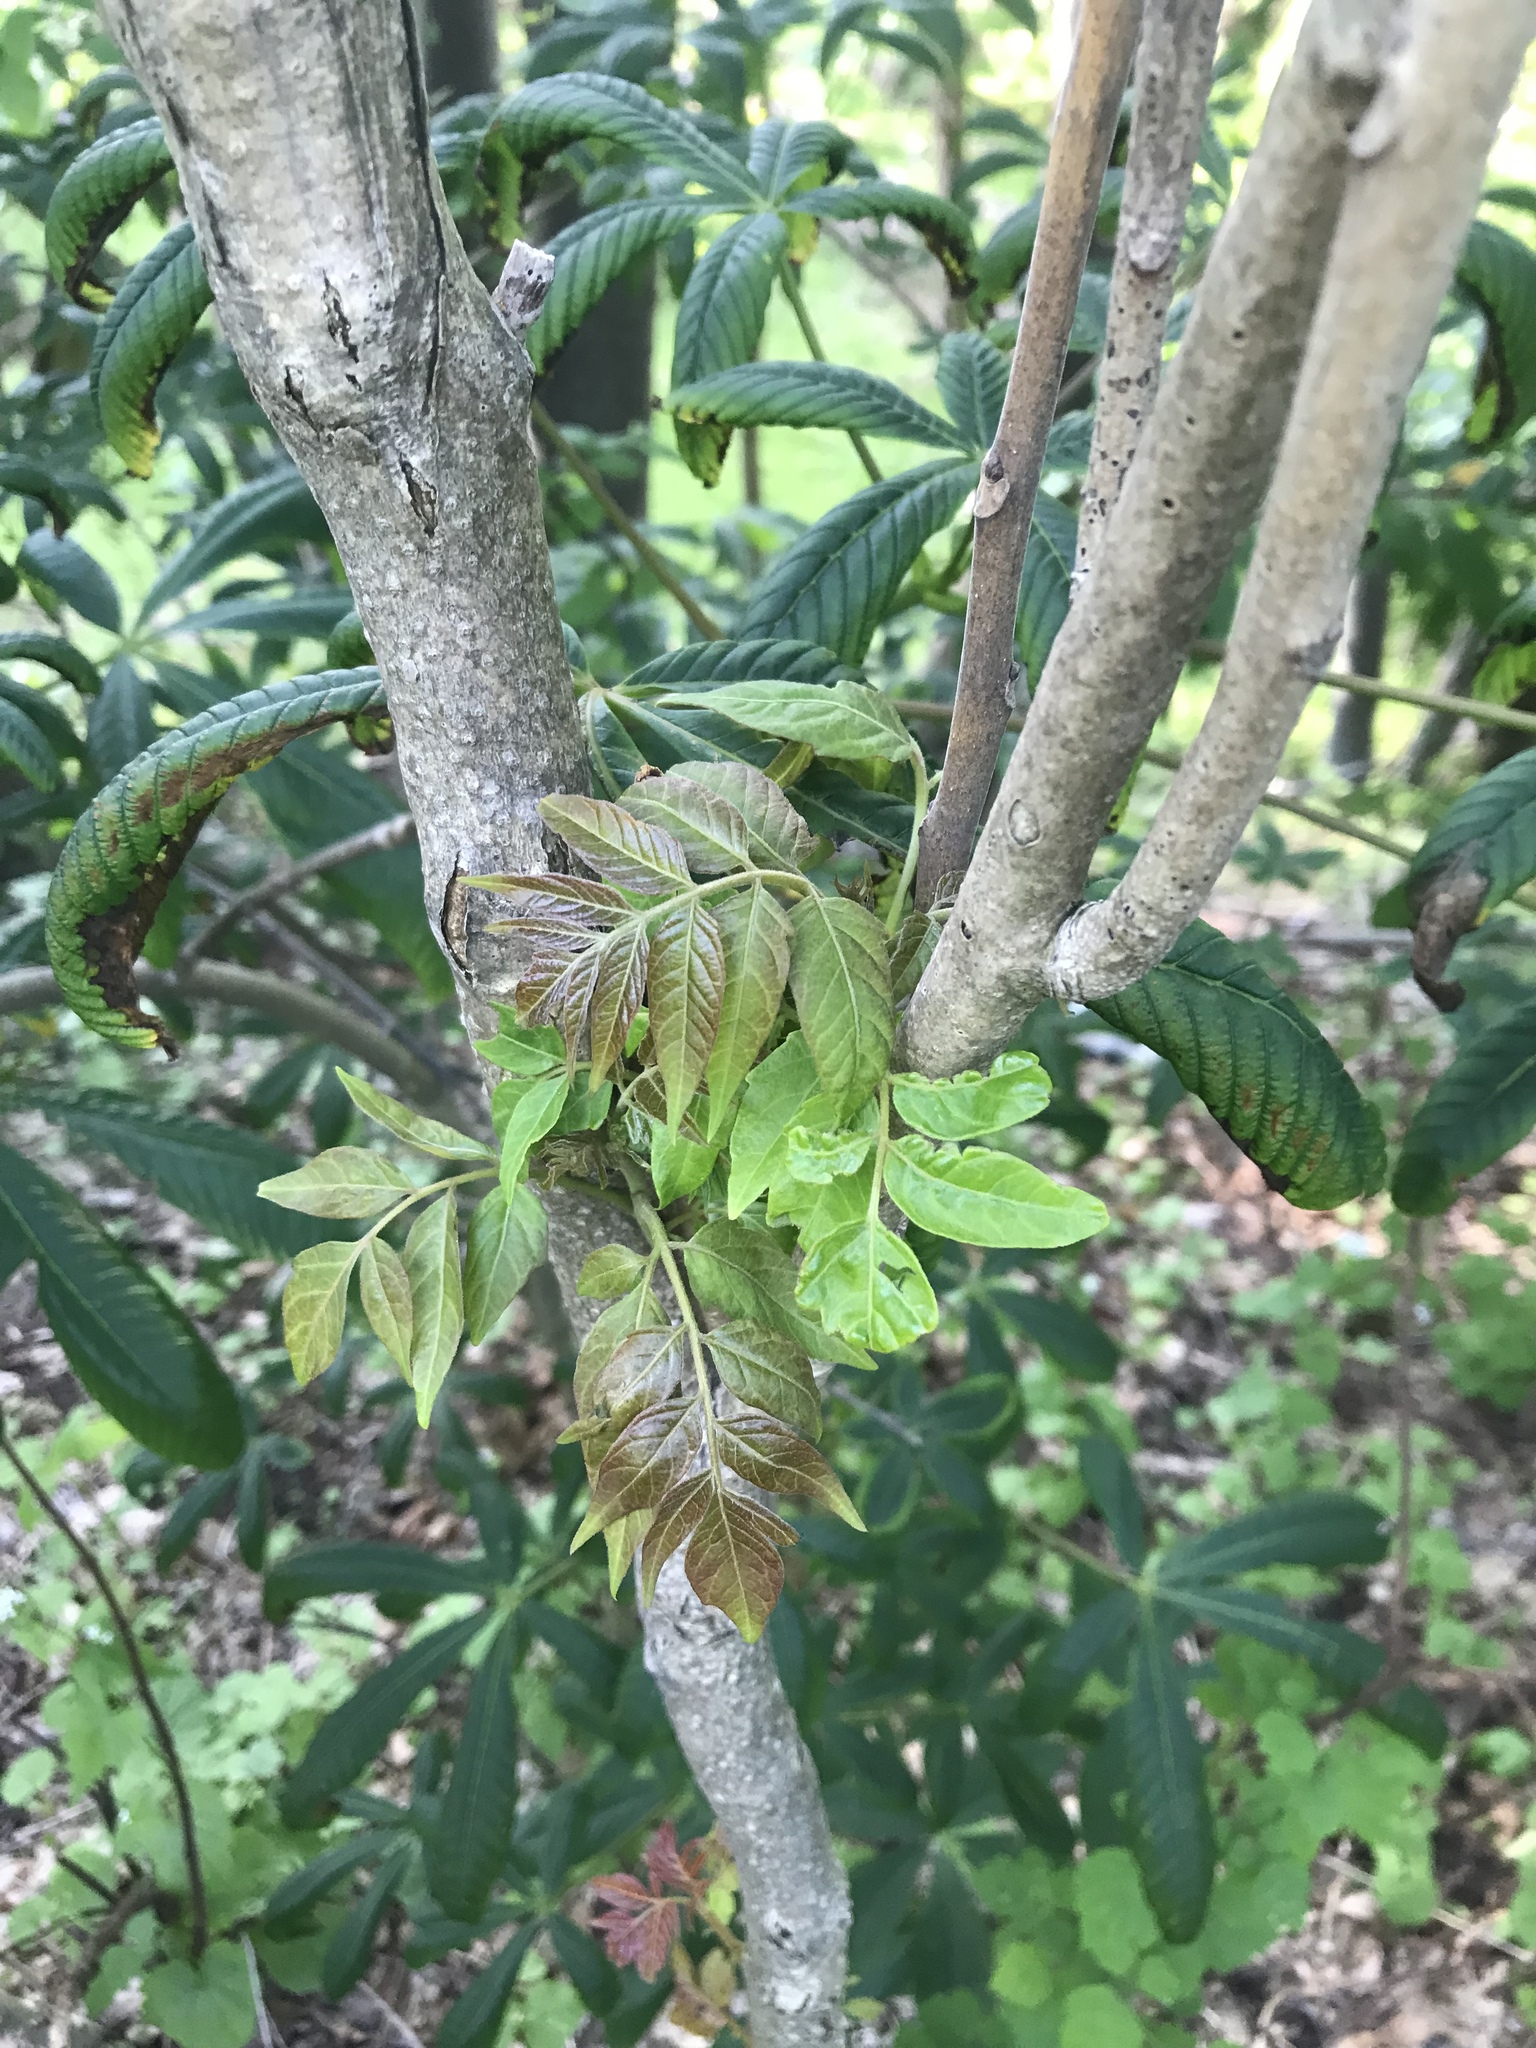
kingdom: Plantae
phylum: Tracheophyta
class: Magnoliopsida
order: Sapindales
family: Simaroubaceae
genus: Ailanthus
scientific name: Ailanthus altissima
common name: Tree-of-heaven
